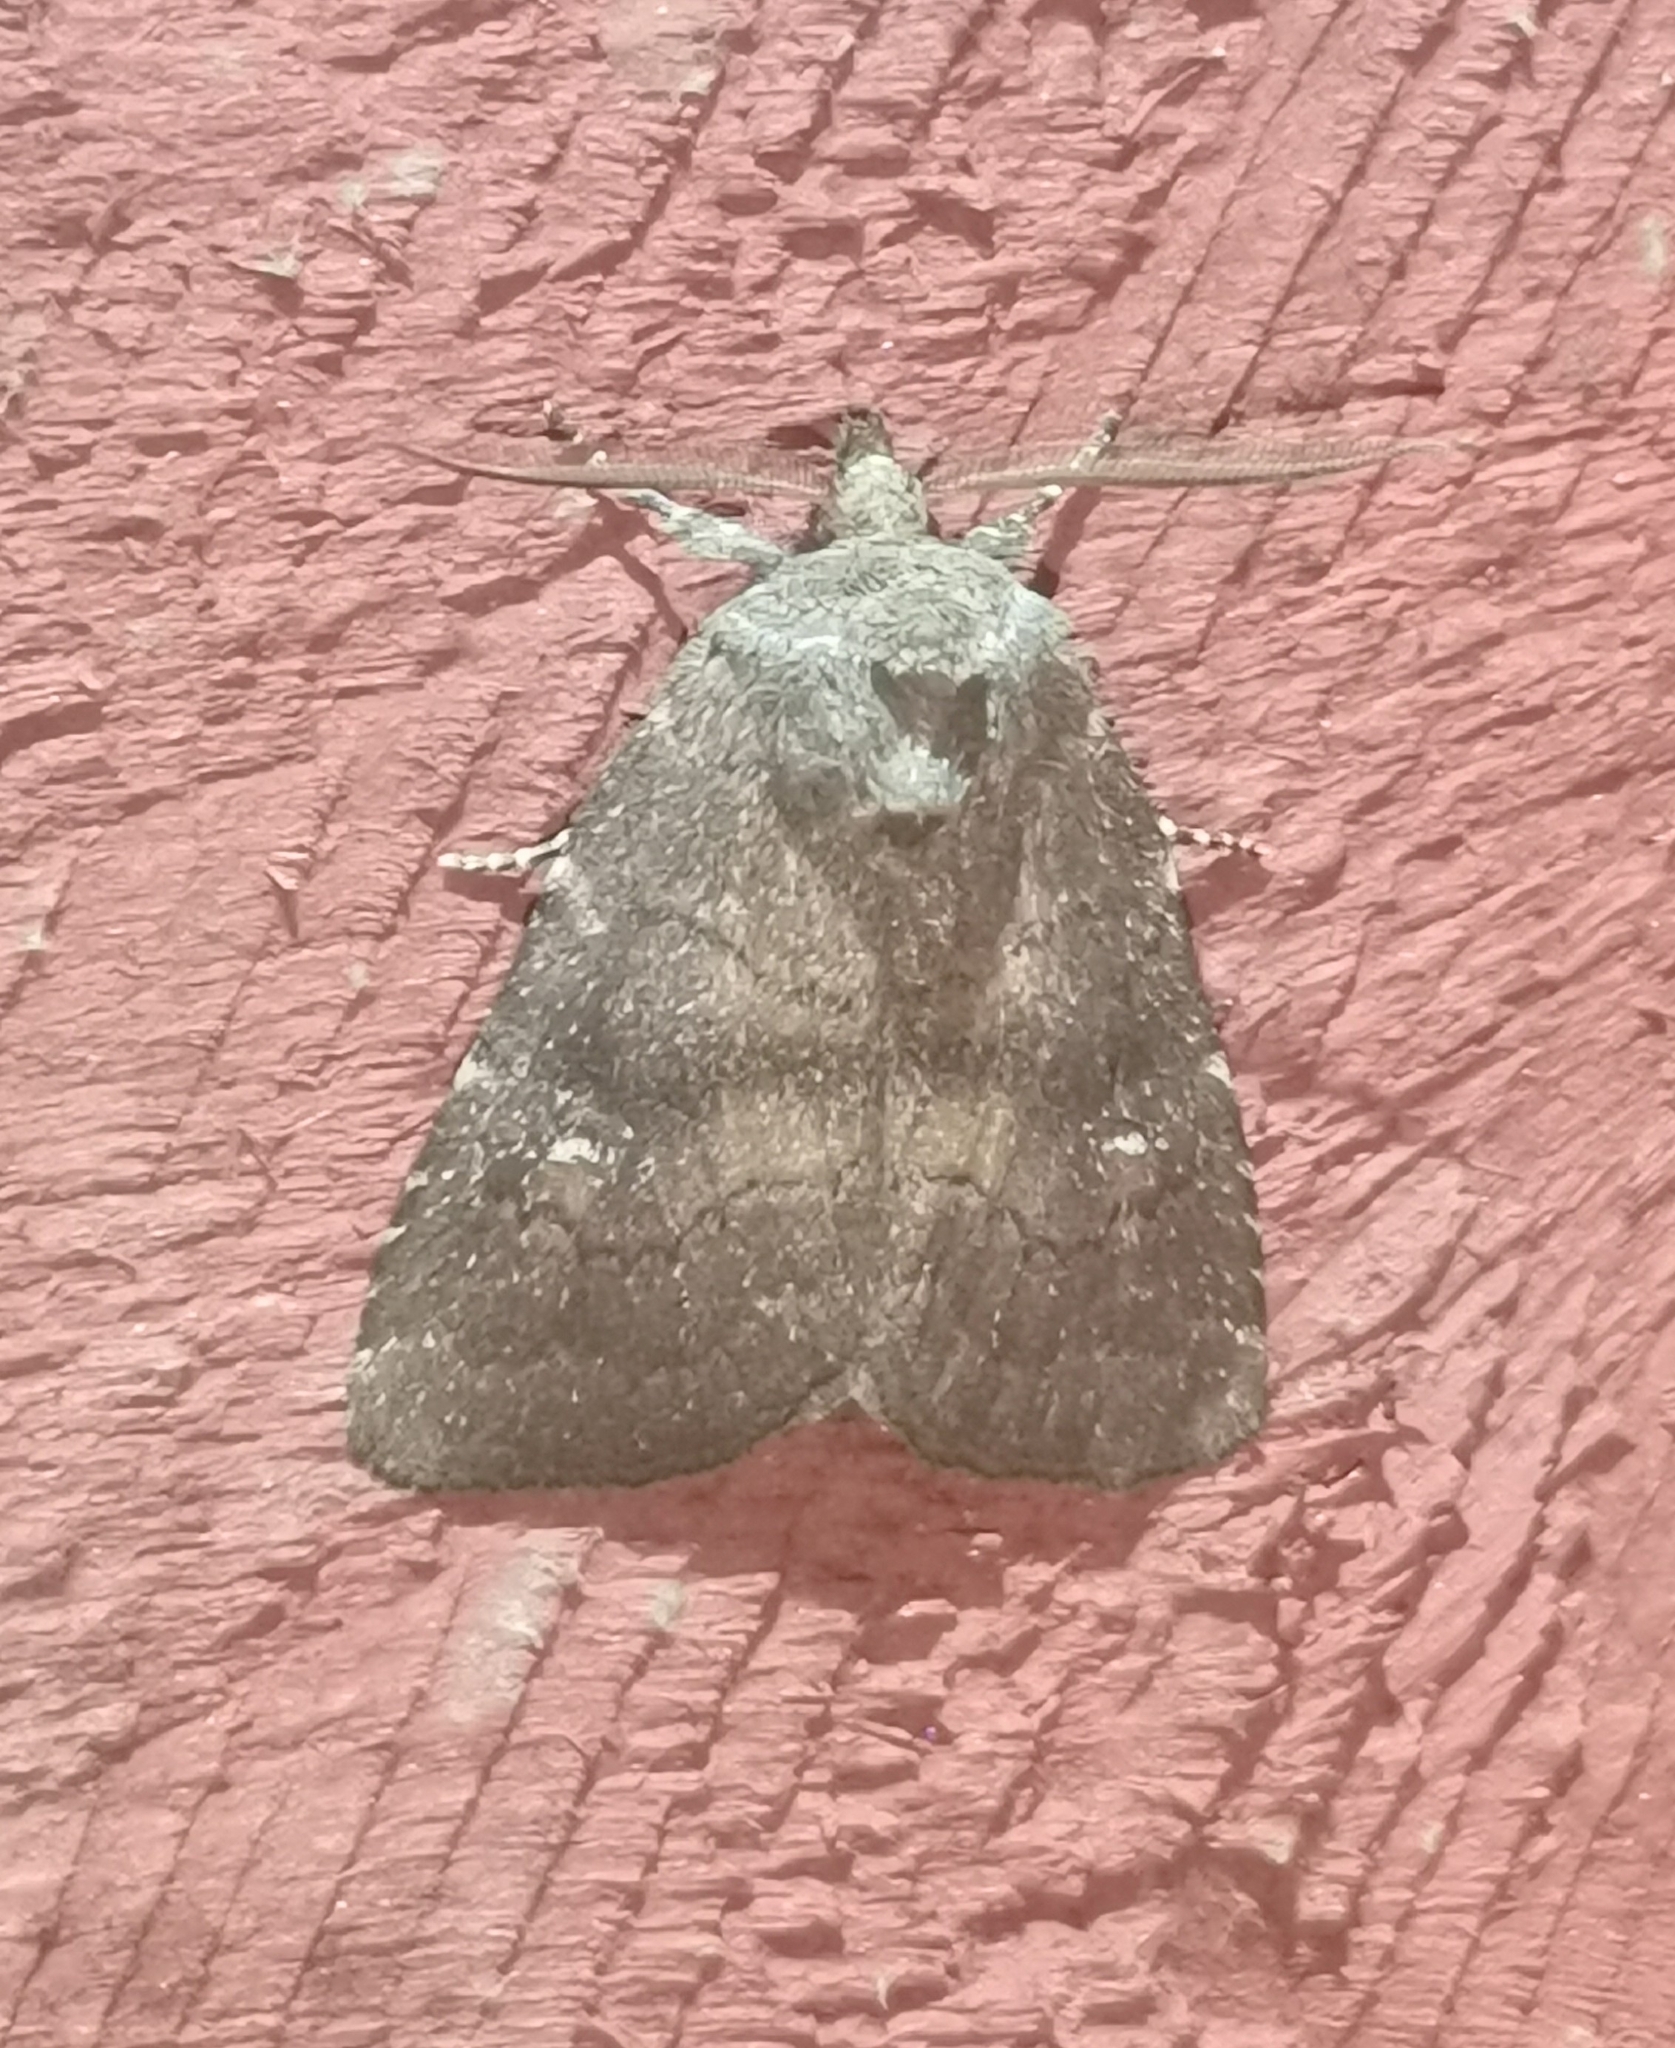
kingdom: Animalia
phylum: Arthropoda
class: Insecta
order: Lepidoptera
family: Noctuidae
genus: Charanyca
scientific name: Charanyca ferruginea
